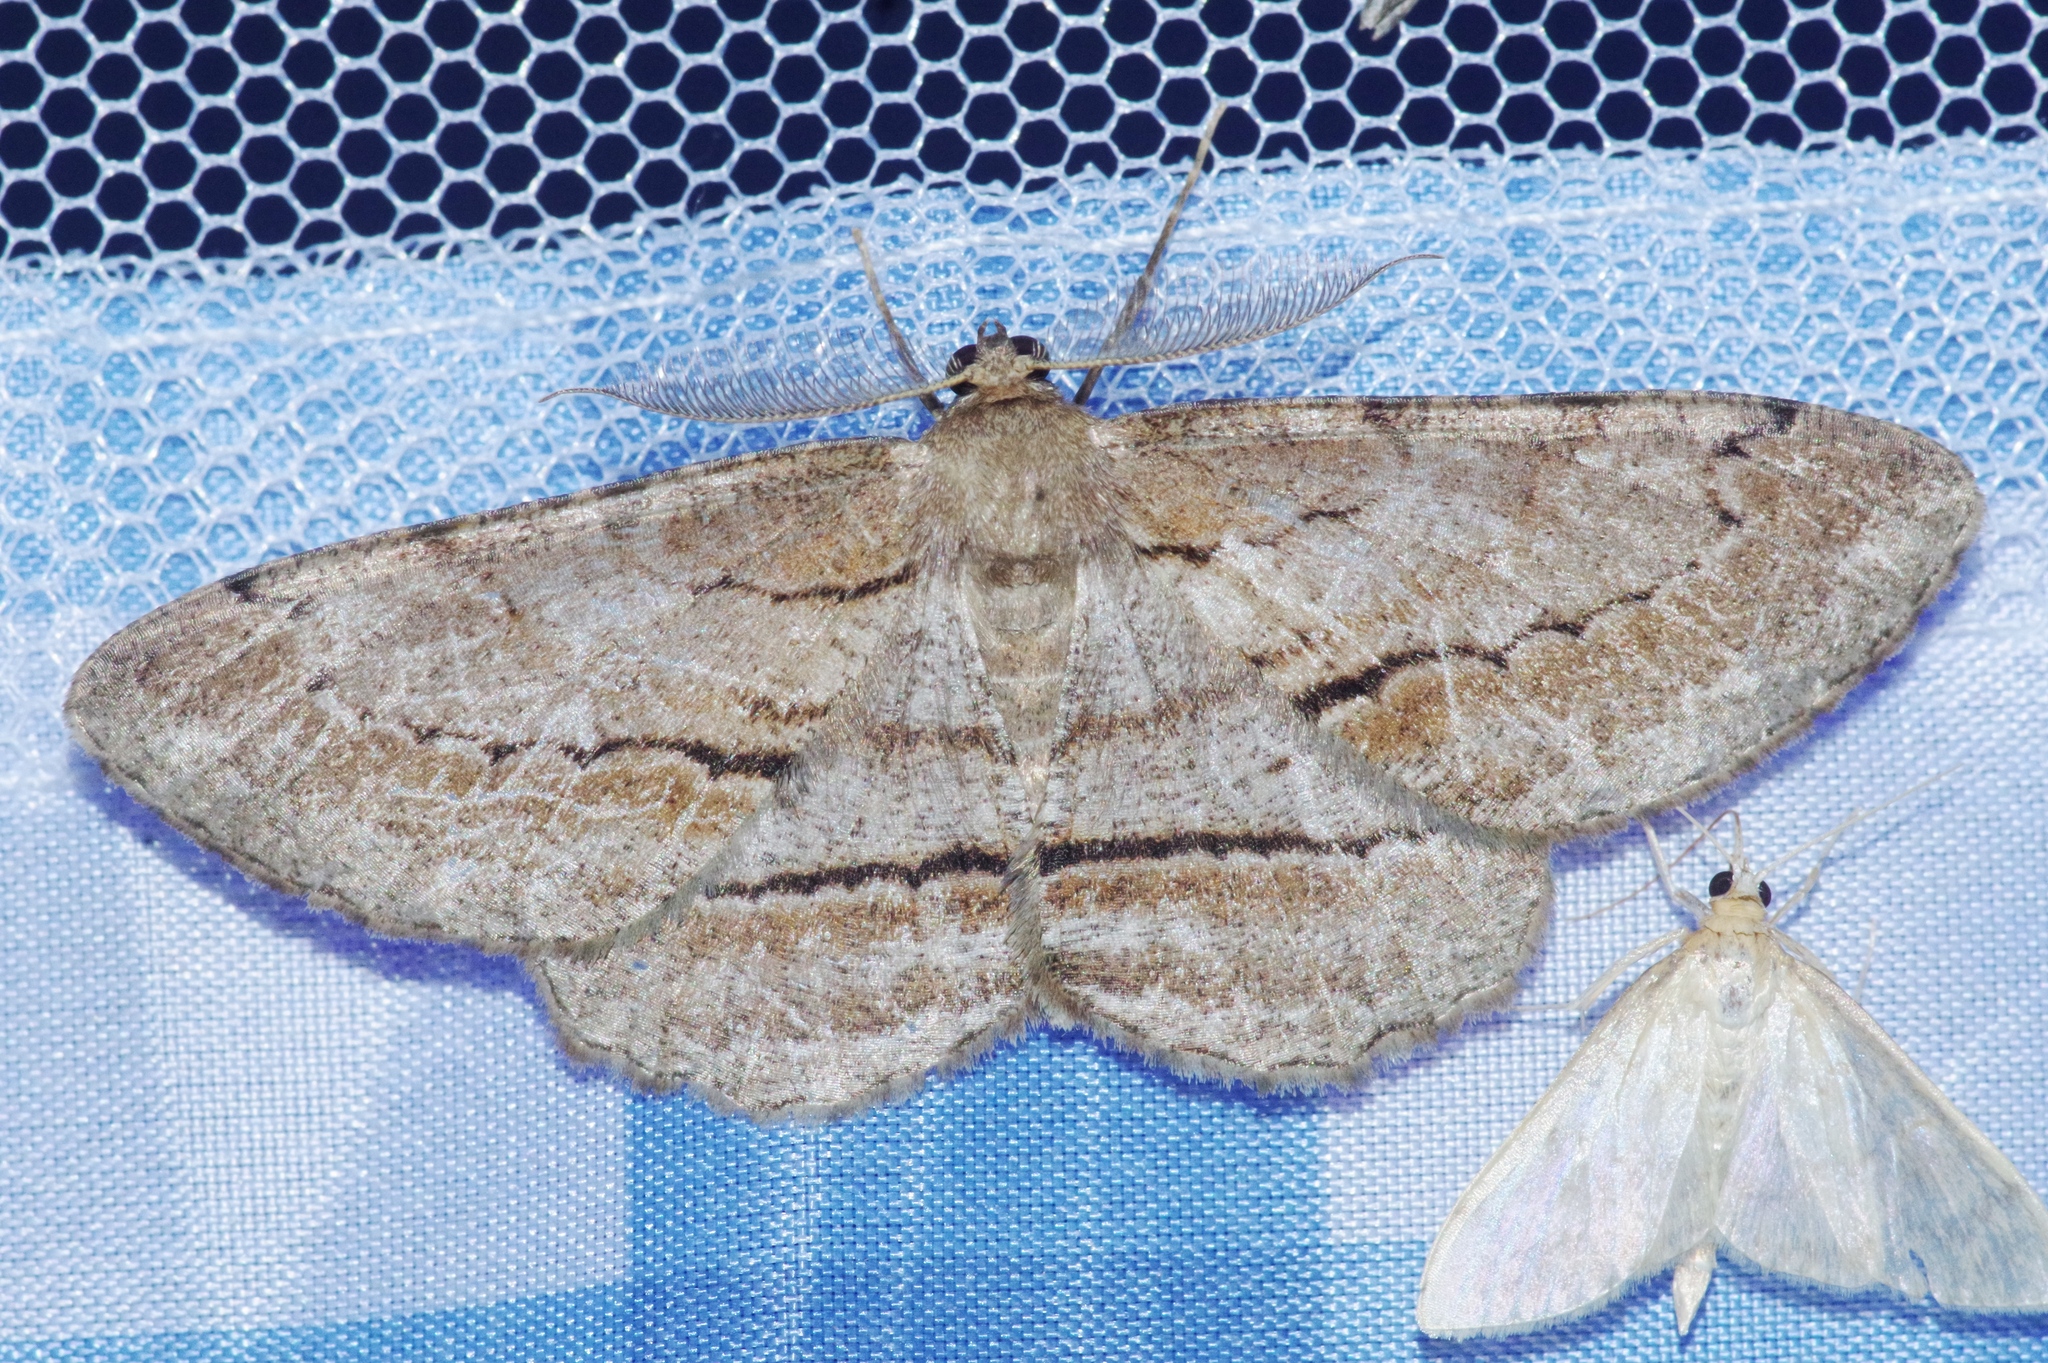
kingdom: Animalia
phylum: Arthropoda
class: Insecta
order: Lepidoptera
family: Geometridae
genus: Apocleora
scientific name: Apocleora rimosa
